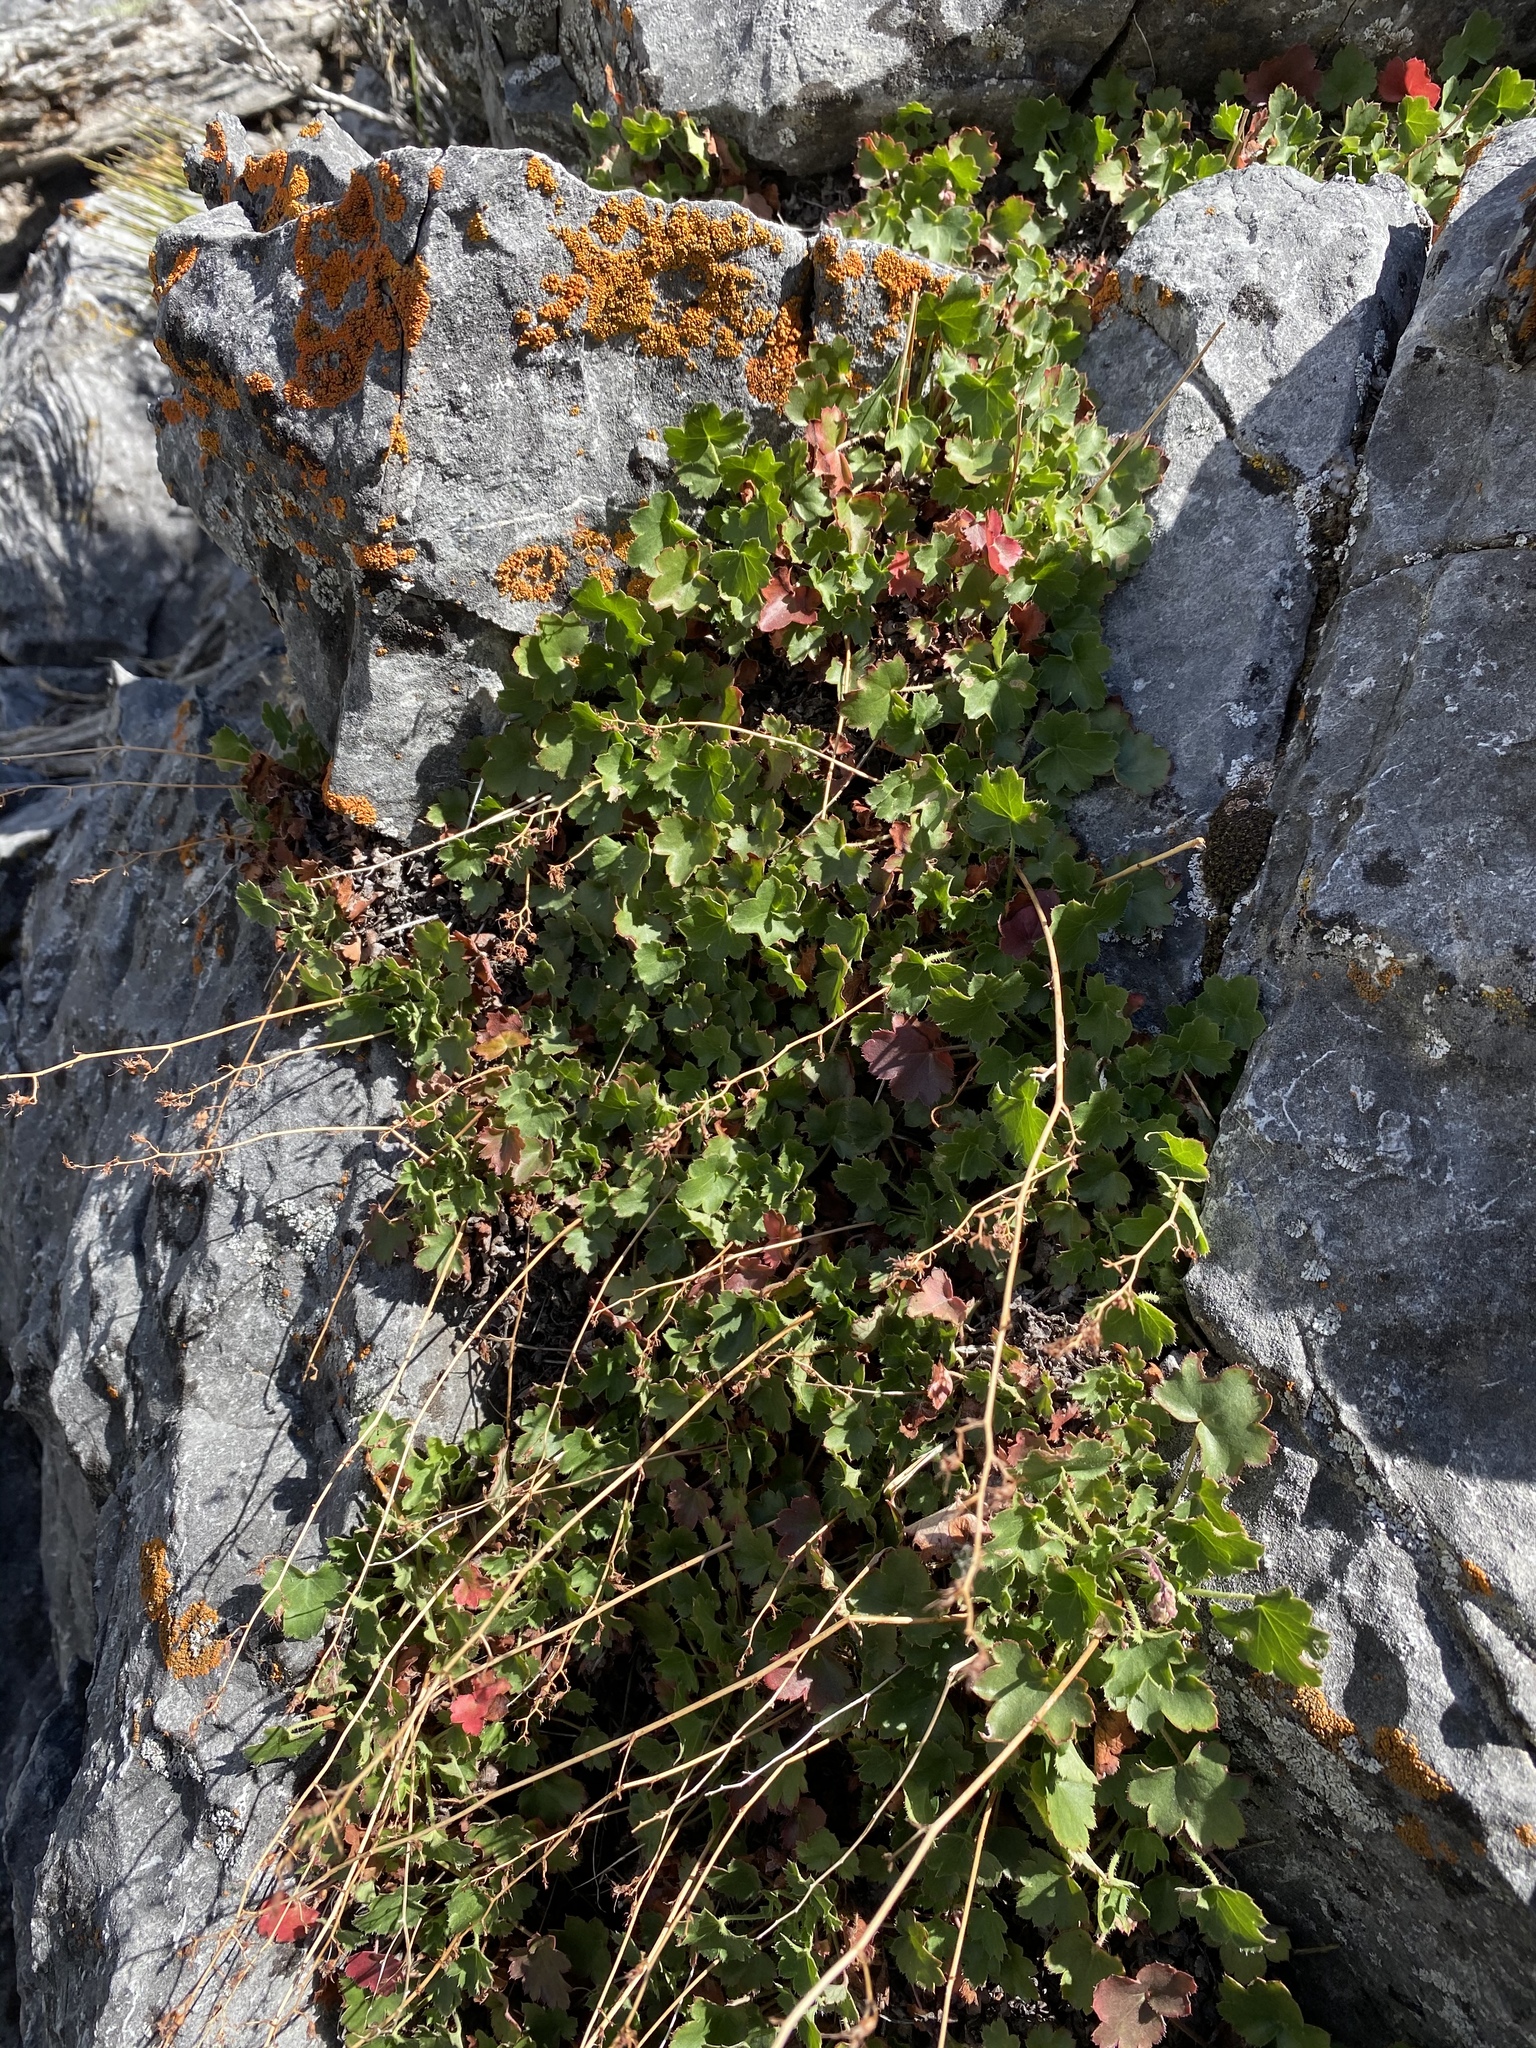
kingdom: Plantae
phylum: Tracheophyta
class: Magnoliopsida
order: Saxifragales
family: Saxifragaceae
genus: Heuchera
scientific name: Heuchera rubescens
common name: Jack-o'the-rocks
